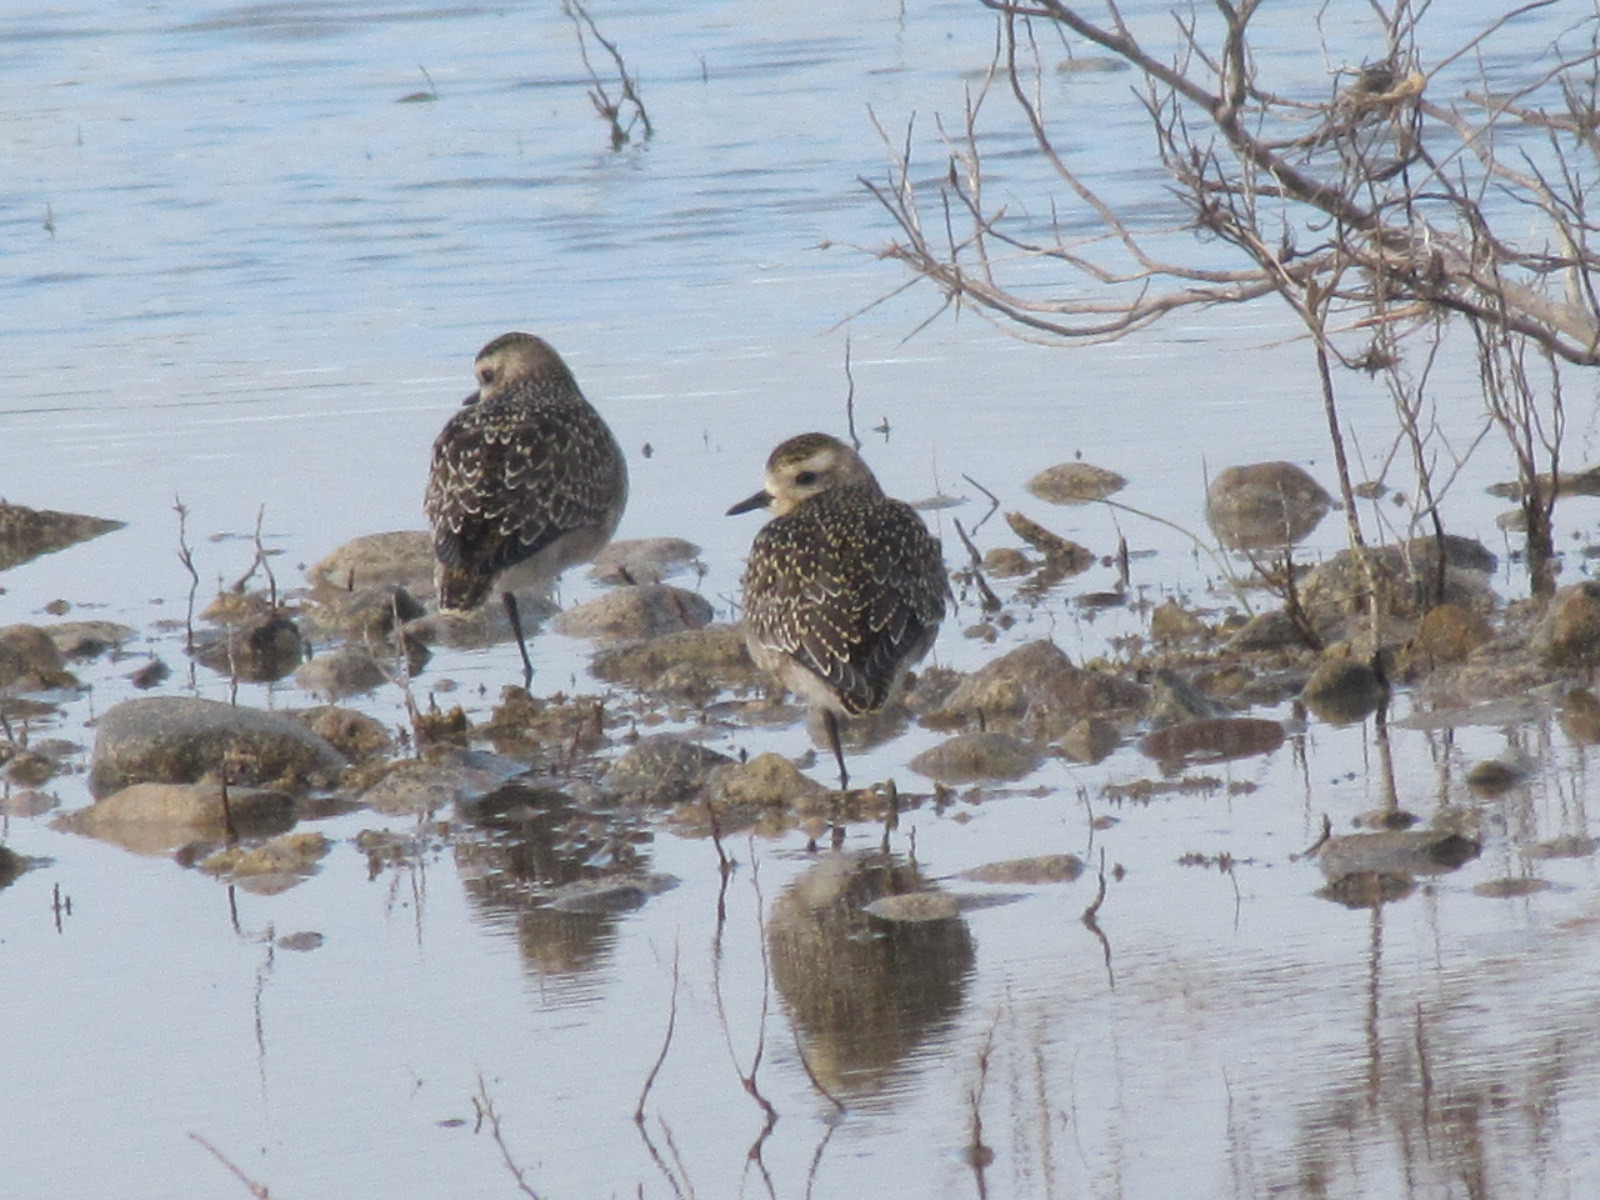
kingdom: Animalia
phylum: Chordata
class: Aves
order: Charadriiformes
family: Charadriidae
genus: Pluvialis
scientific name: Pluvialis dominica
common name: American golden plover
